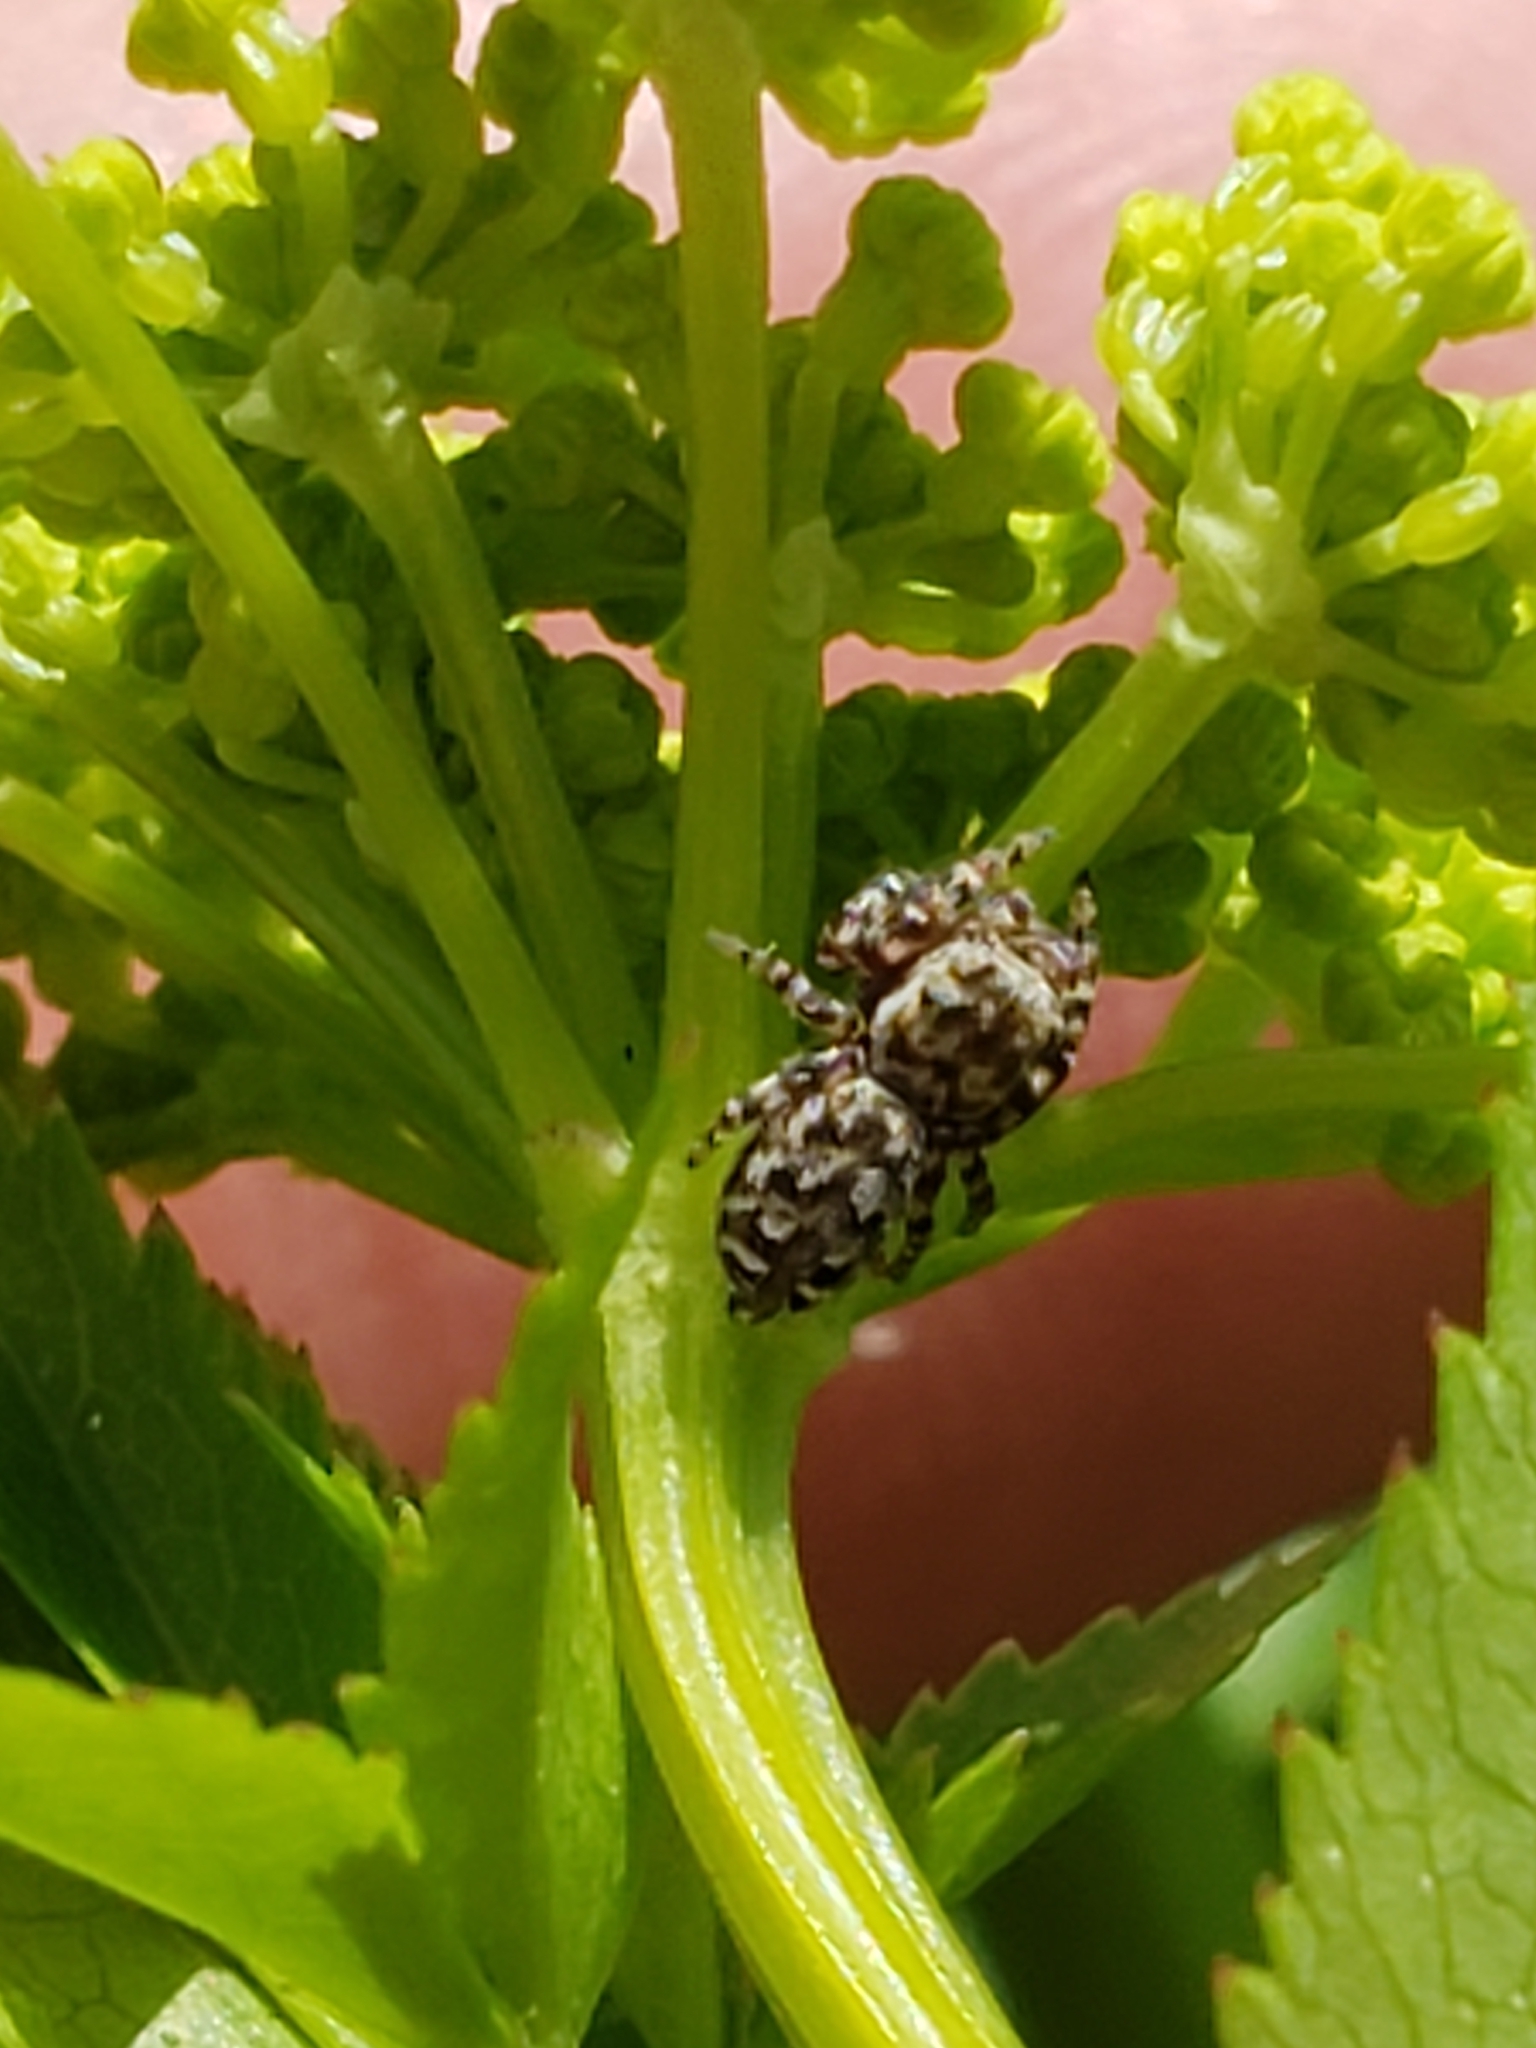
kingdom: Animalia
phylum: Arthropoda
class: Arachnida
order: Araneae
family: Salticidae
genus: Pelegrina
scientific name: Pelegrina galathea
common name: Jumping spiders
